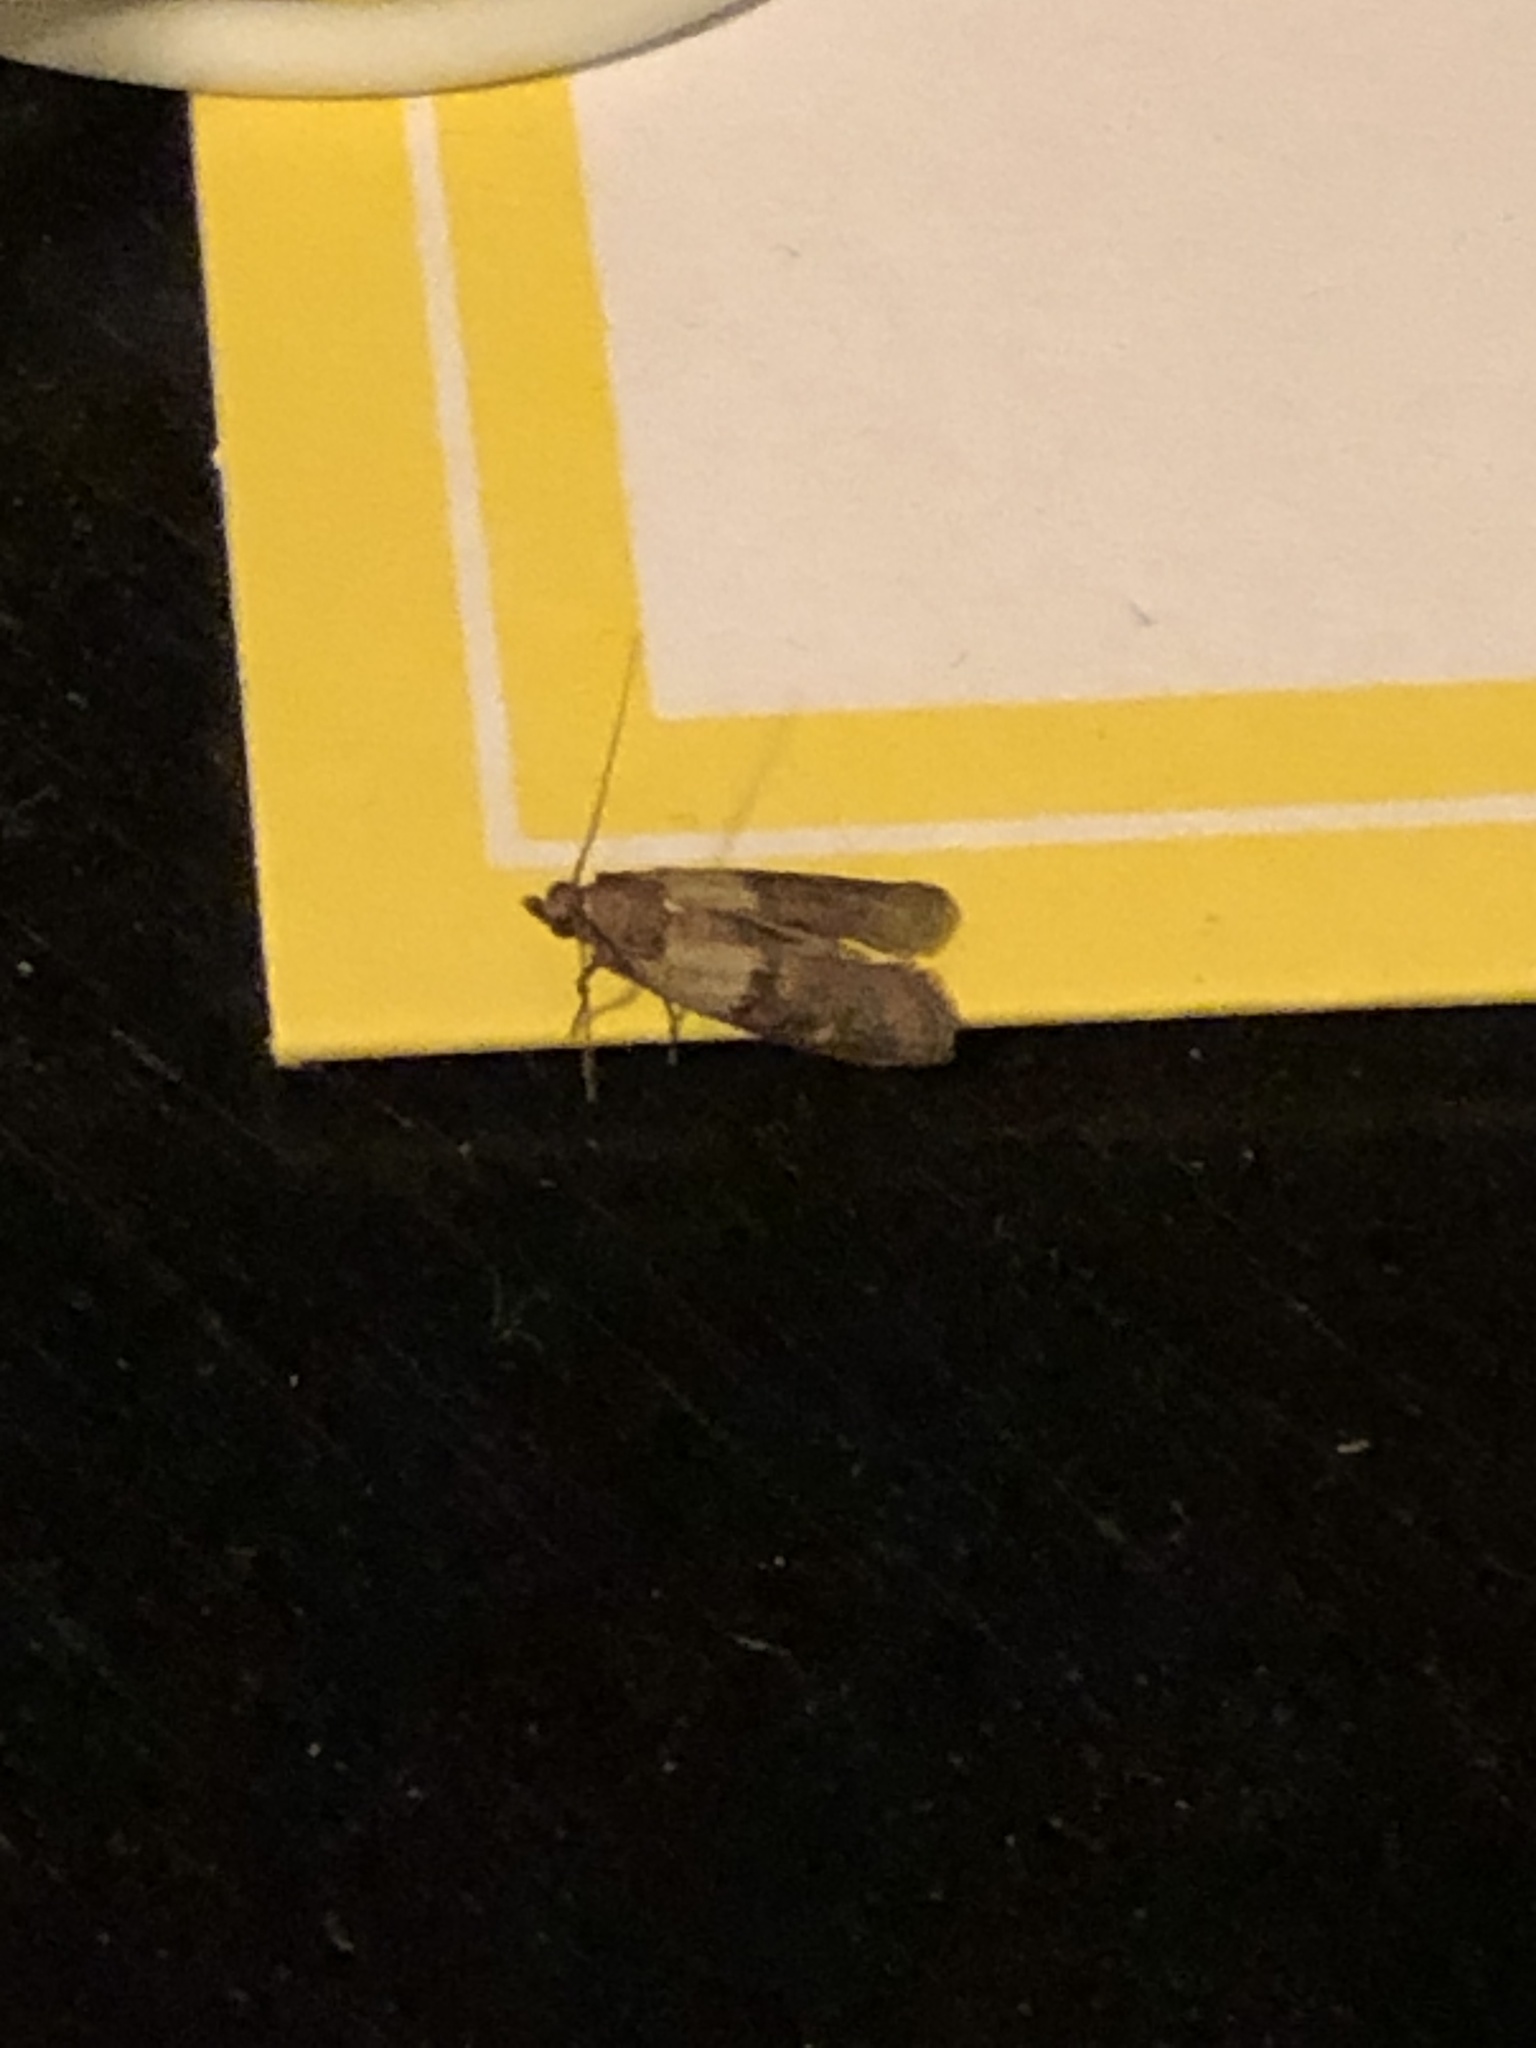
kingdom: Animalia
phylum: Arthropoda
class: Insecta
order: Lepidoptera
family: Pyralidae
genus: Plodia
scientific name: Plodia interpunctella
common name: Indian meal moth
